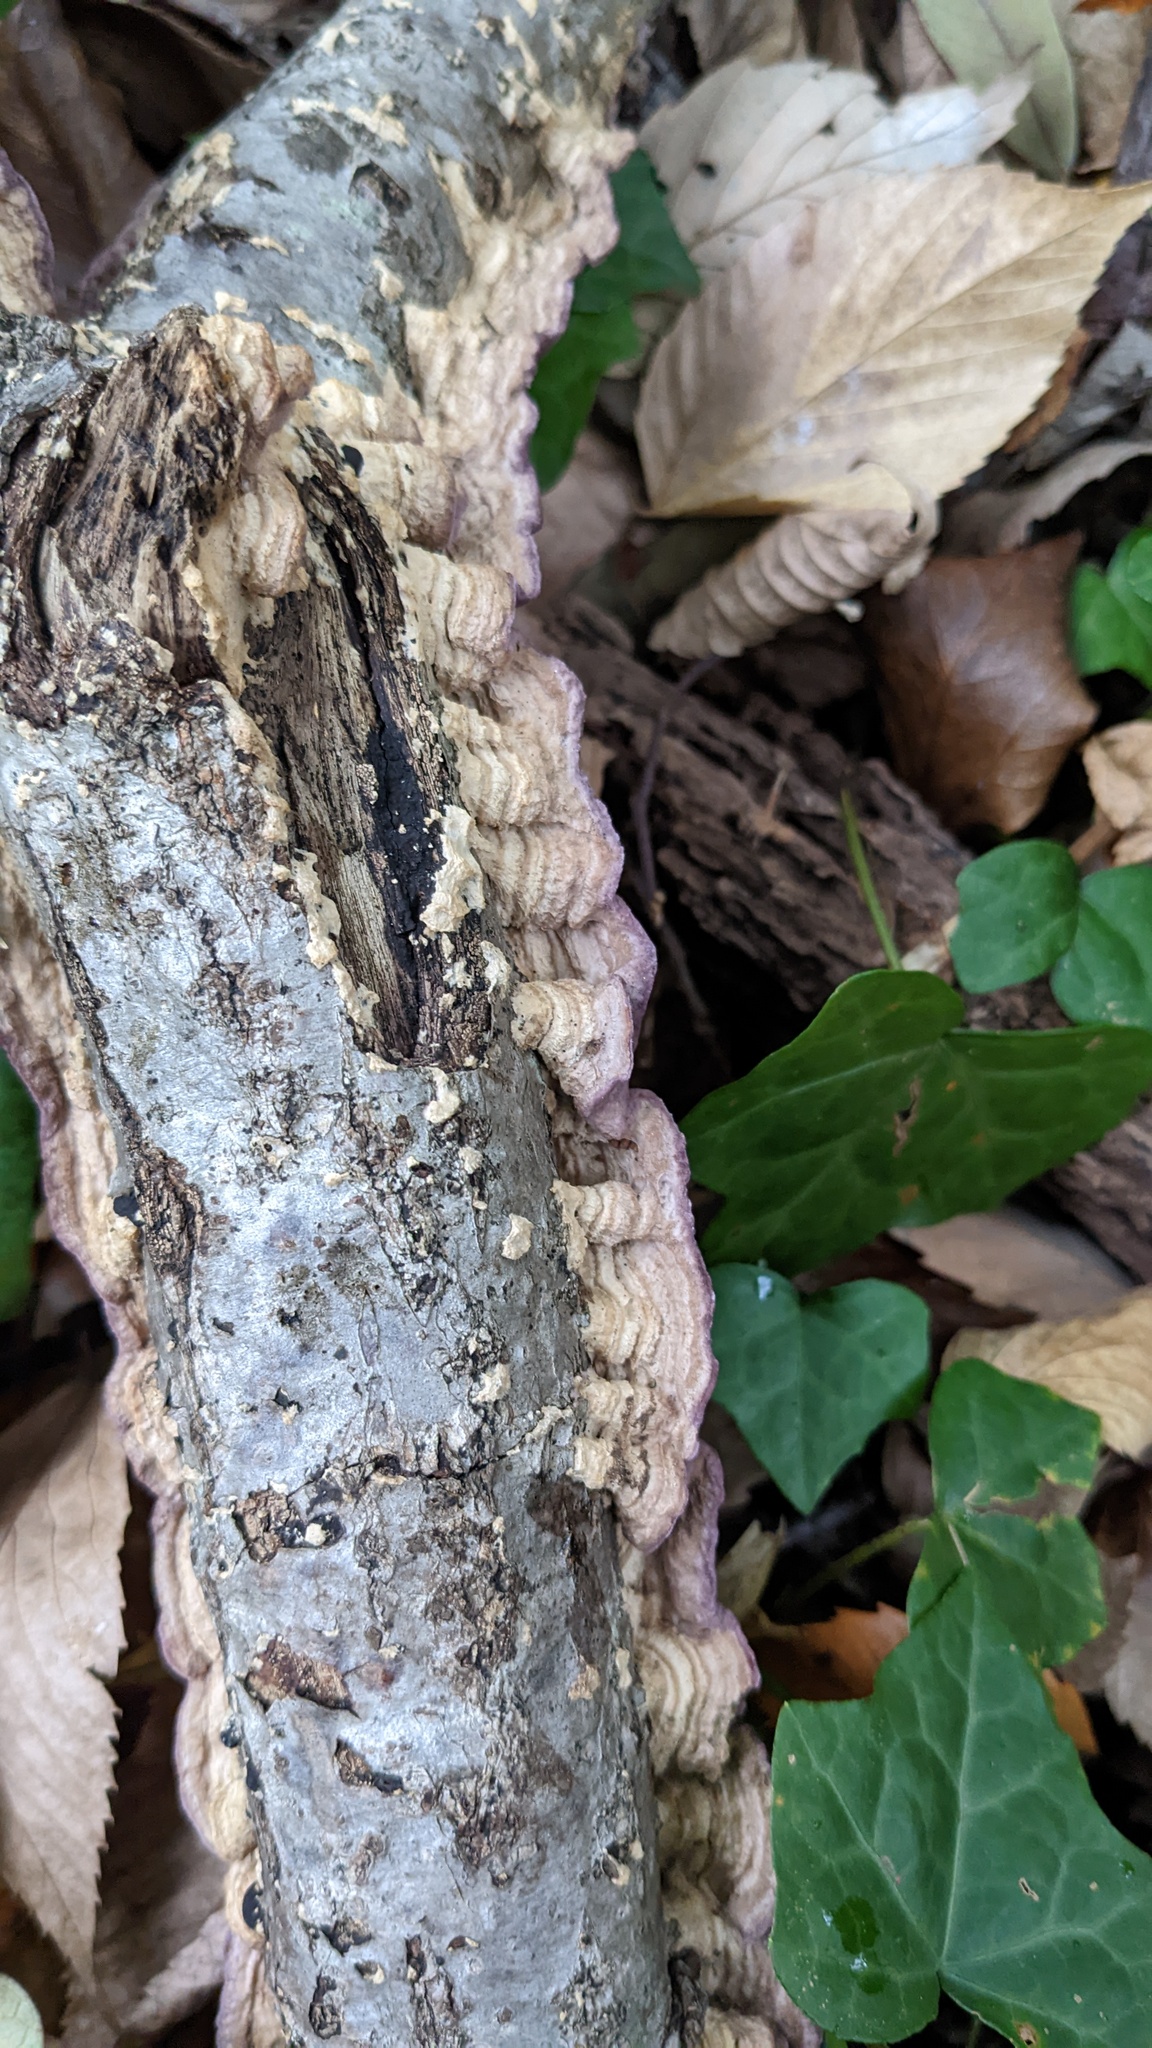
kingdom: Fungi
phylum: Basidiomycota
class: Agaricomycetes
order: Polyporales
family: Phanerochaetaceae
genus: Phlebiopsis
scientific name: Phlebiopsis crassa
